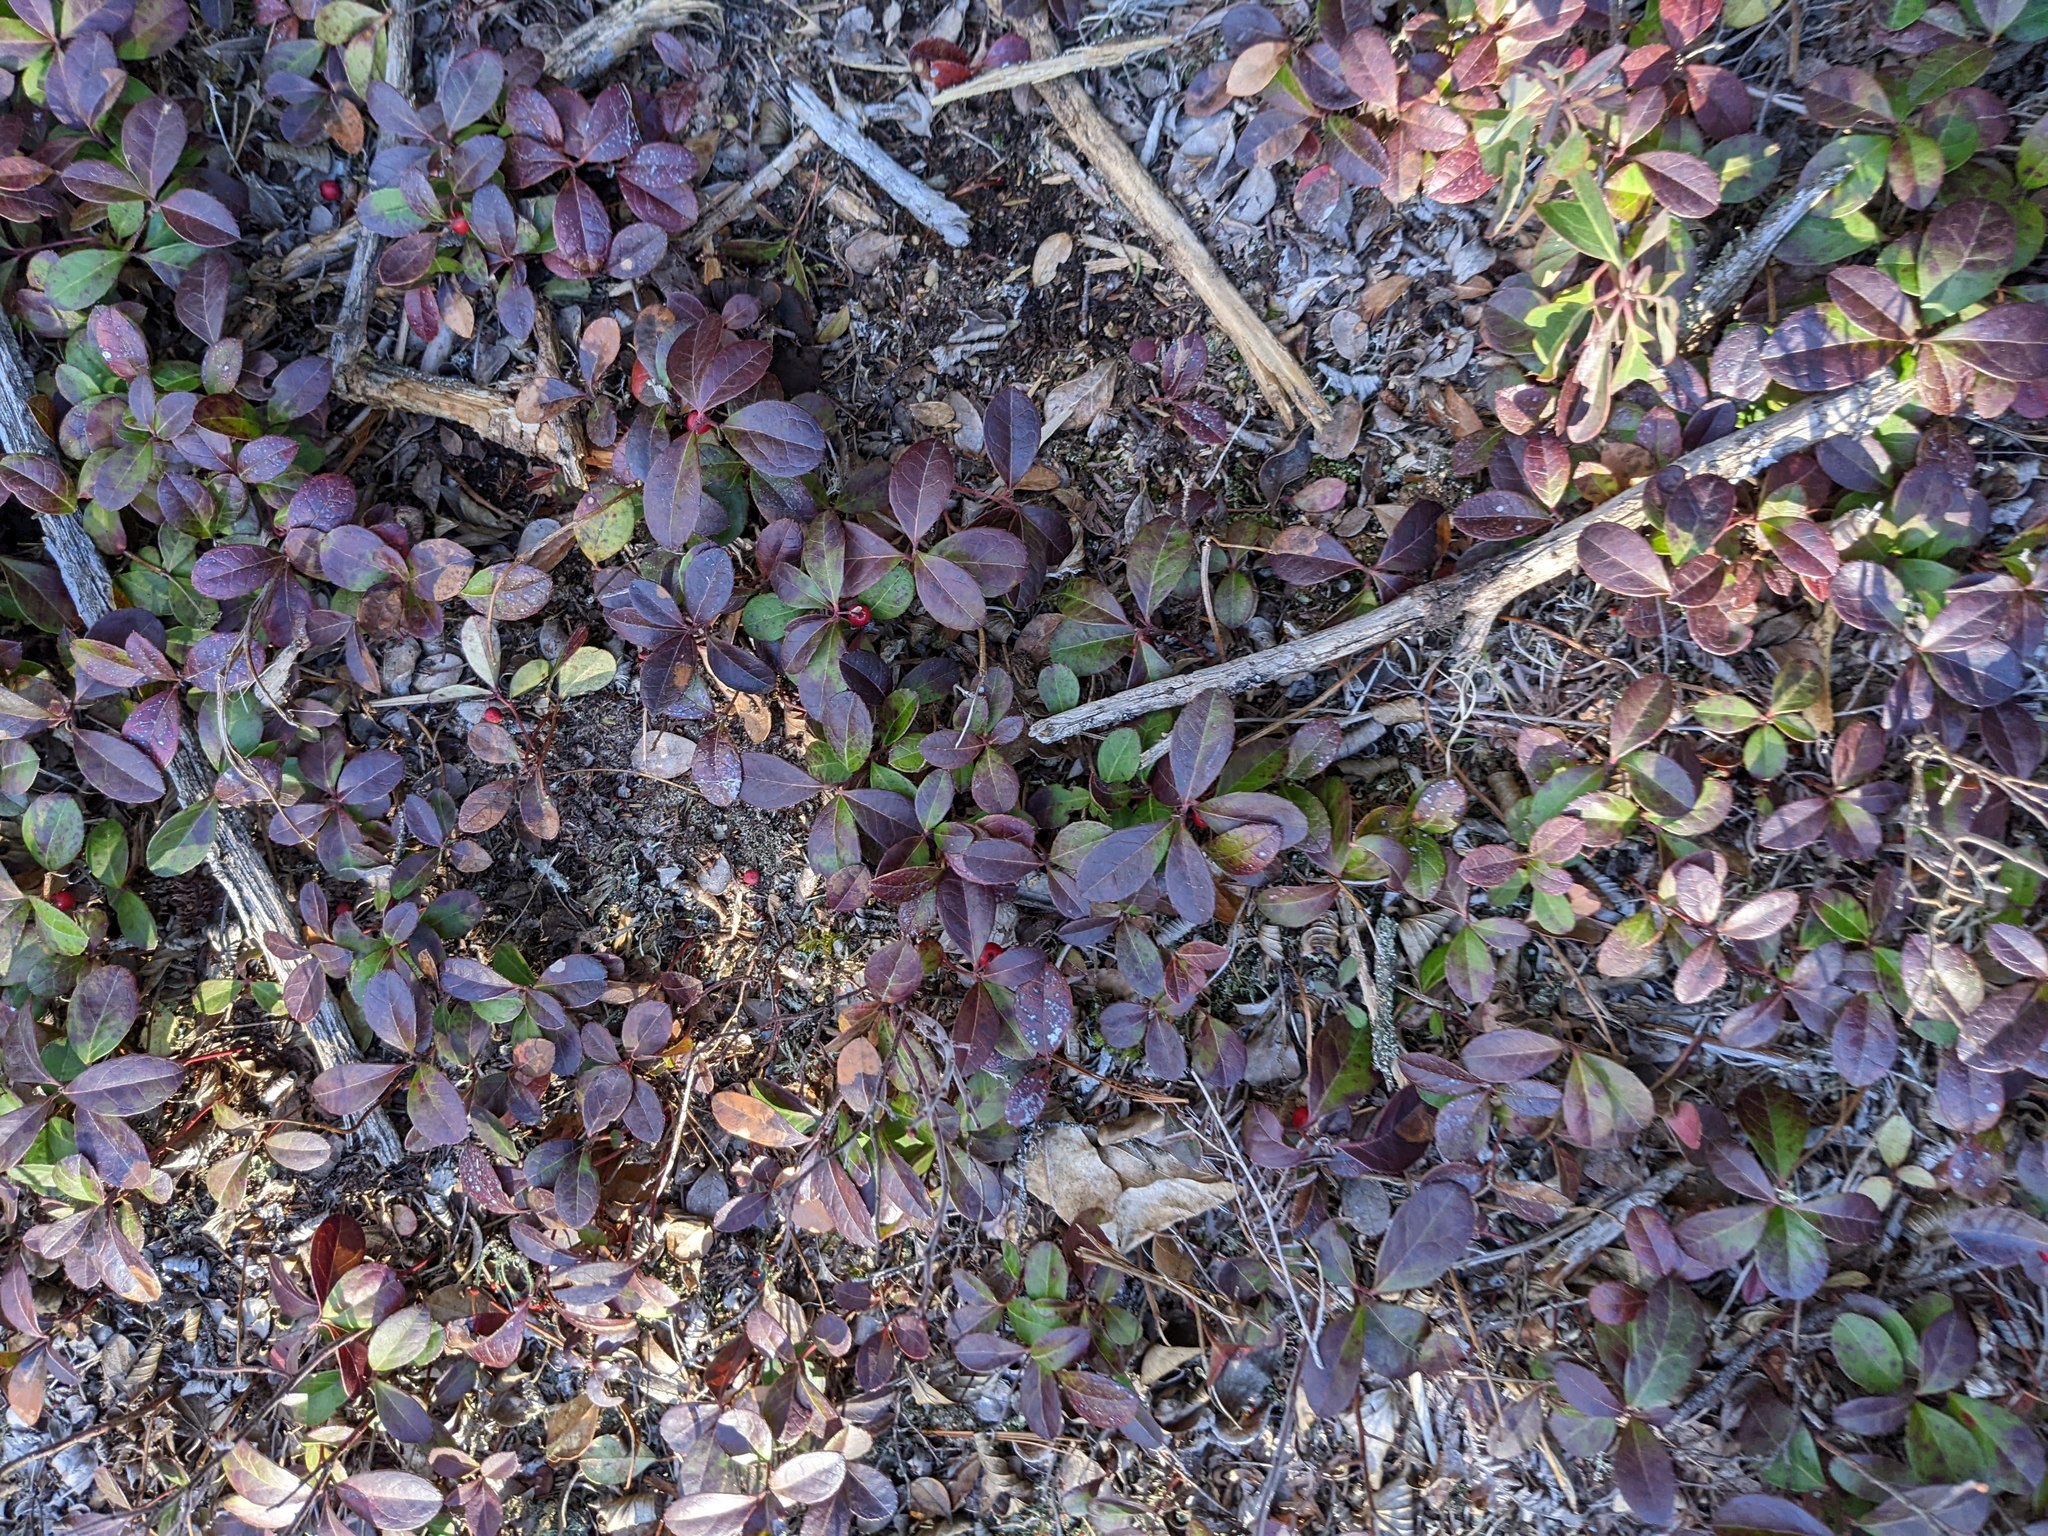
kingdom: Plantae
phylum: Tracheophyta
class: Magnoliopsida
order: Ericales
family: Ericaceae
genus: Gaultheria
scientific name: Gaultheria procumbens
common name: Checkerberry
